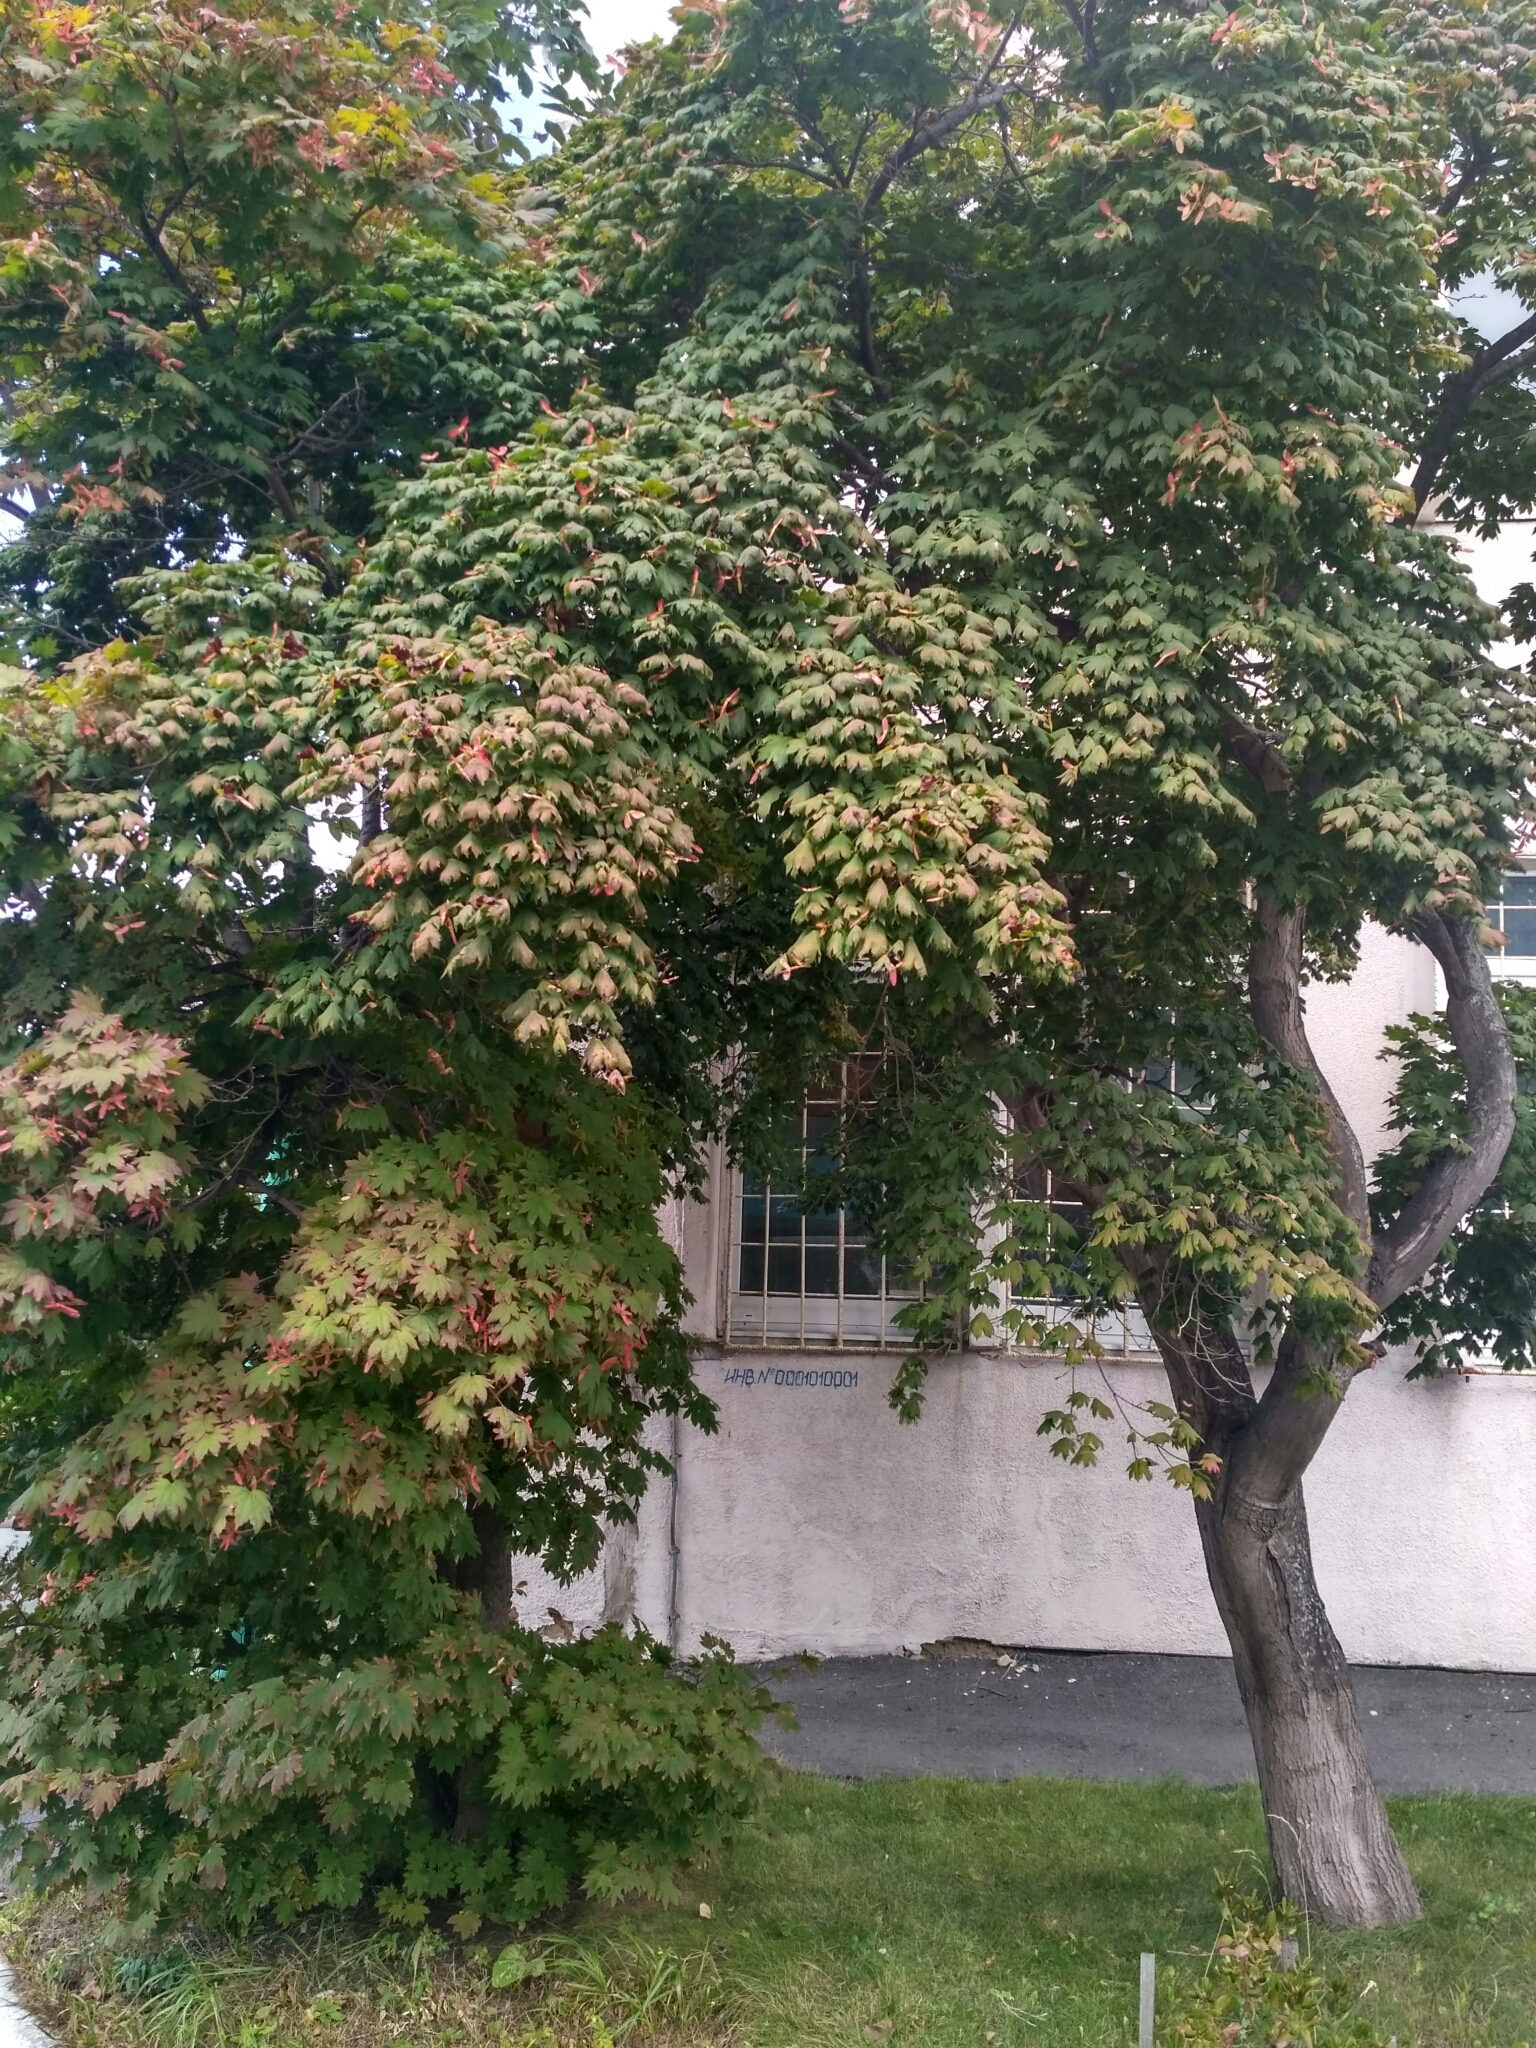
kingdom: Plantae
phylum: Tracheophyta
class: Magnoliopsida
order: Sapindales
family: Sapindaceae
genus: Acer
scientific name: Acer pseudosieboldianum
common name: Korean maple
